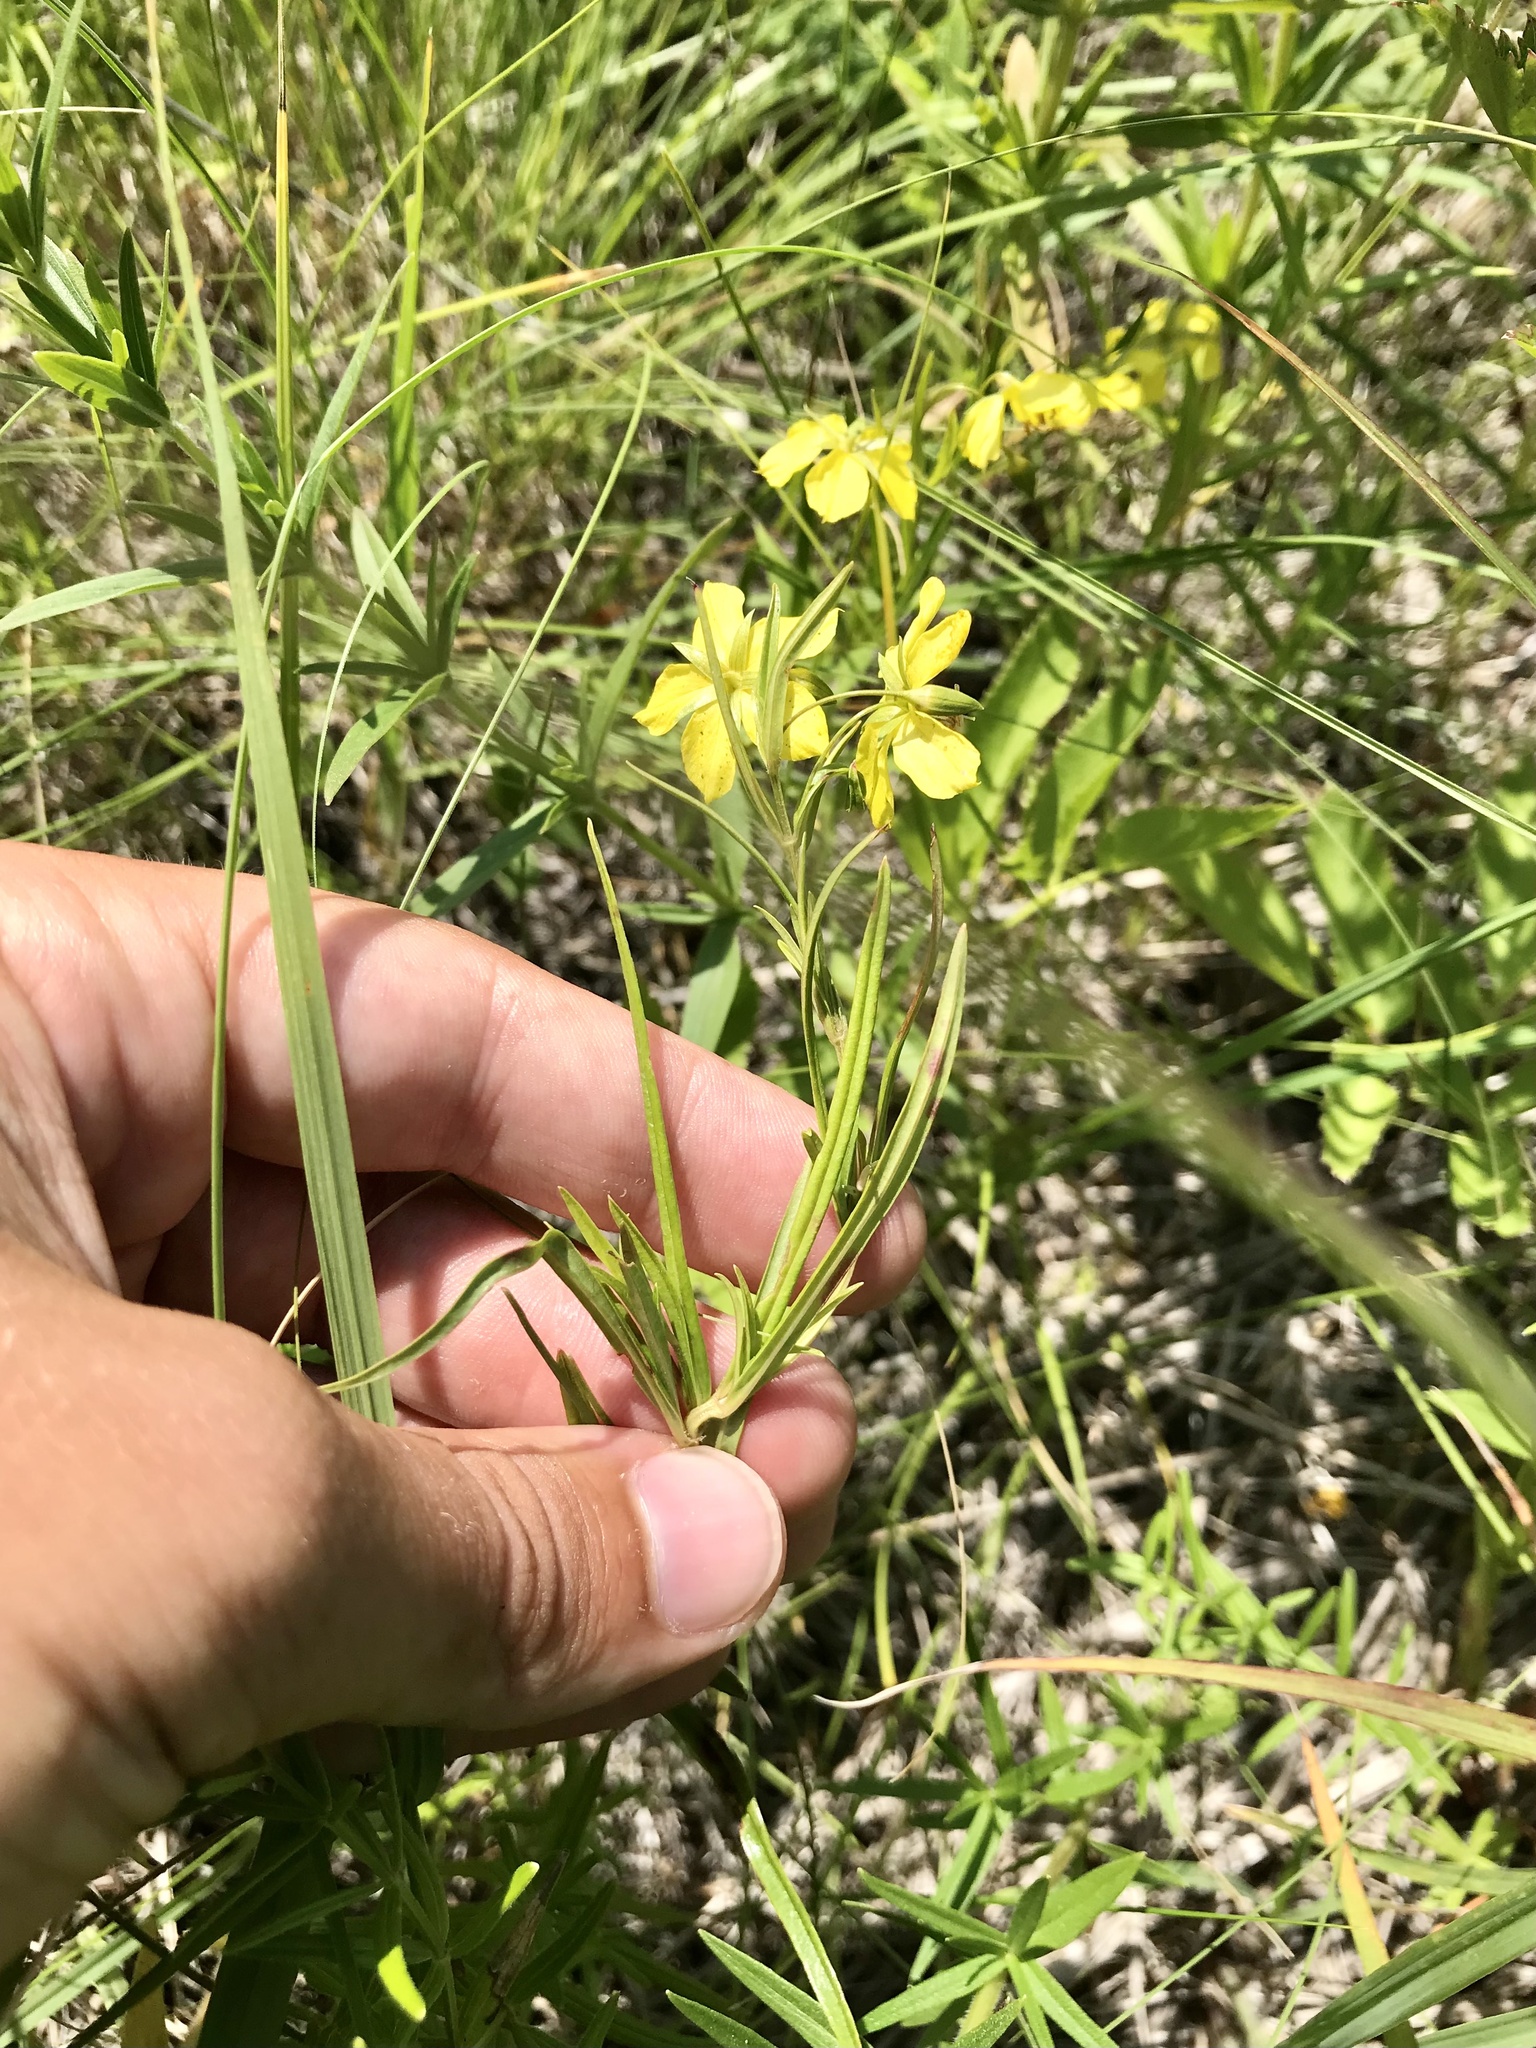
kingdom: Plantae
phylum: Tracheophyta
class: Magnoliopsida
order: Ericales
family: Primulaceae
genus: Lysimachia
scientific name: Lysimachia quadriflora
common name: Four-flowered loosestrife
